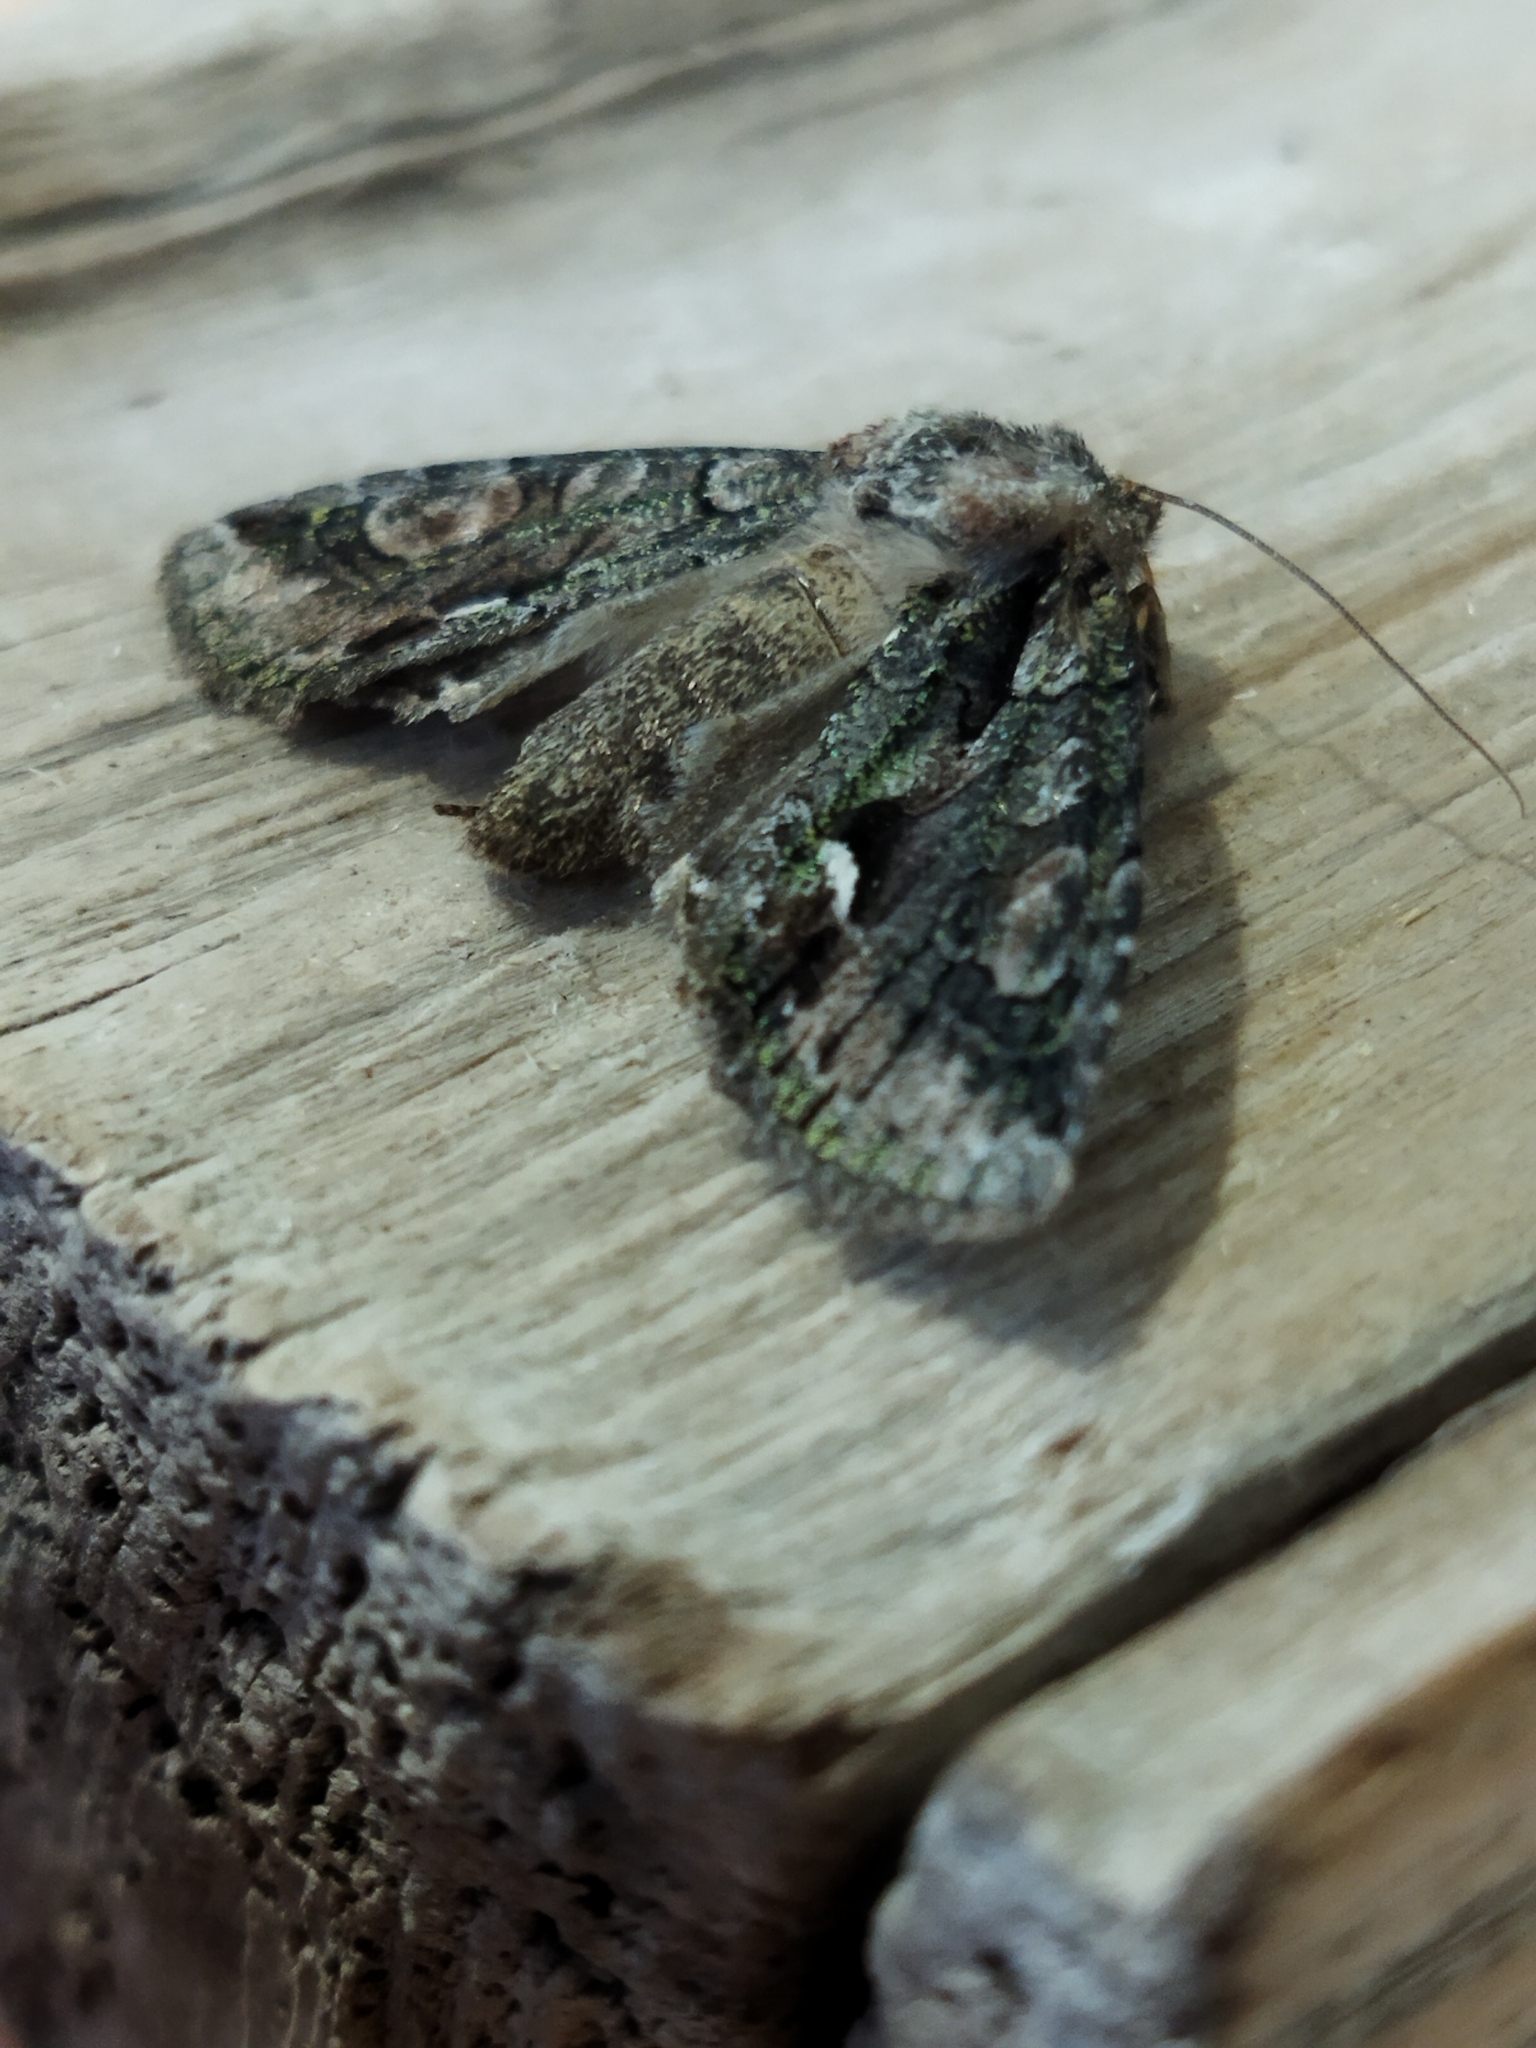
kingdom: Animalia
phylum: Arthropoda
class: Insecta
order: Lepidoptera
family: Noctuidae
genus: Allophyes
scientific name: Allophyes oxyacanthae
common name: Green-brindled crescent
